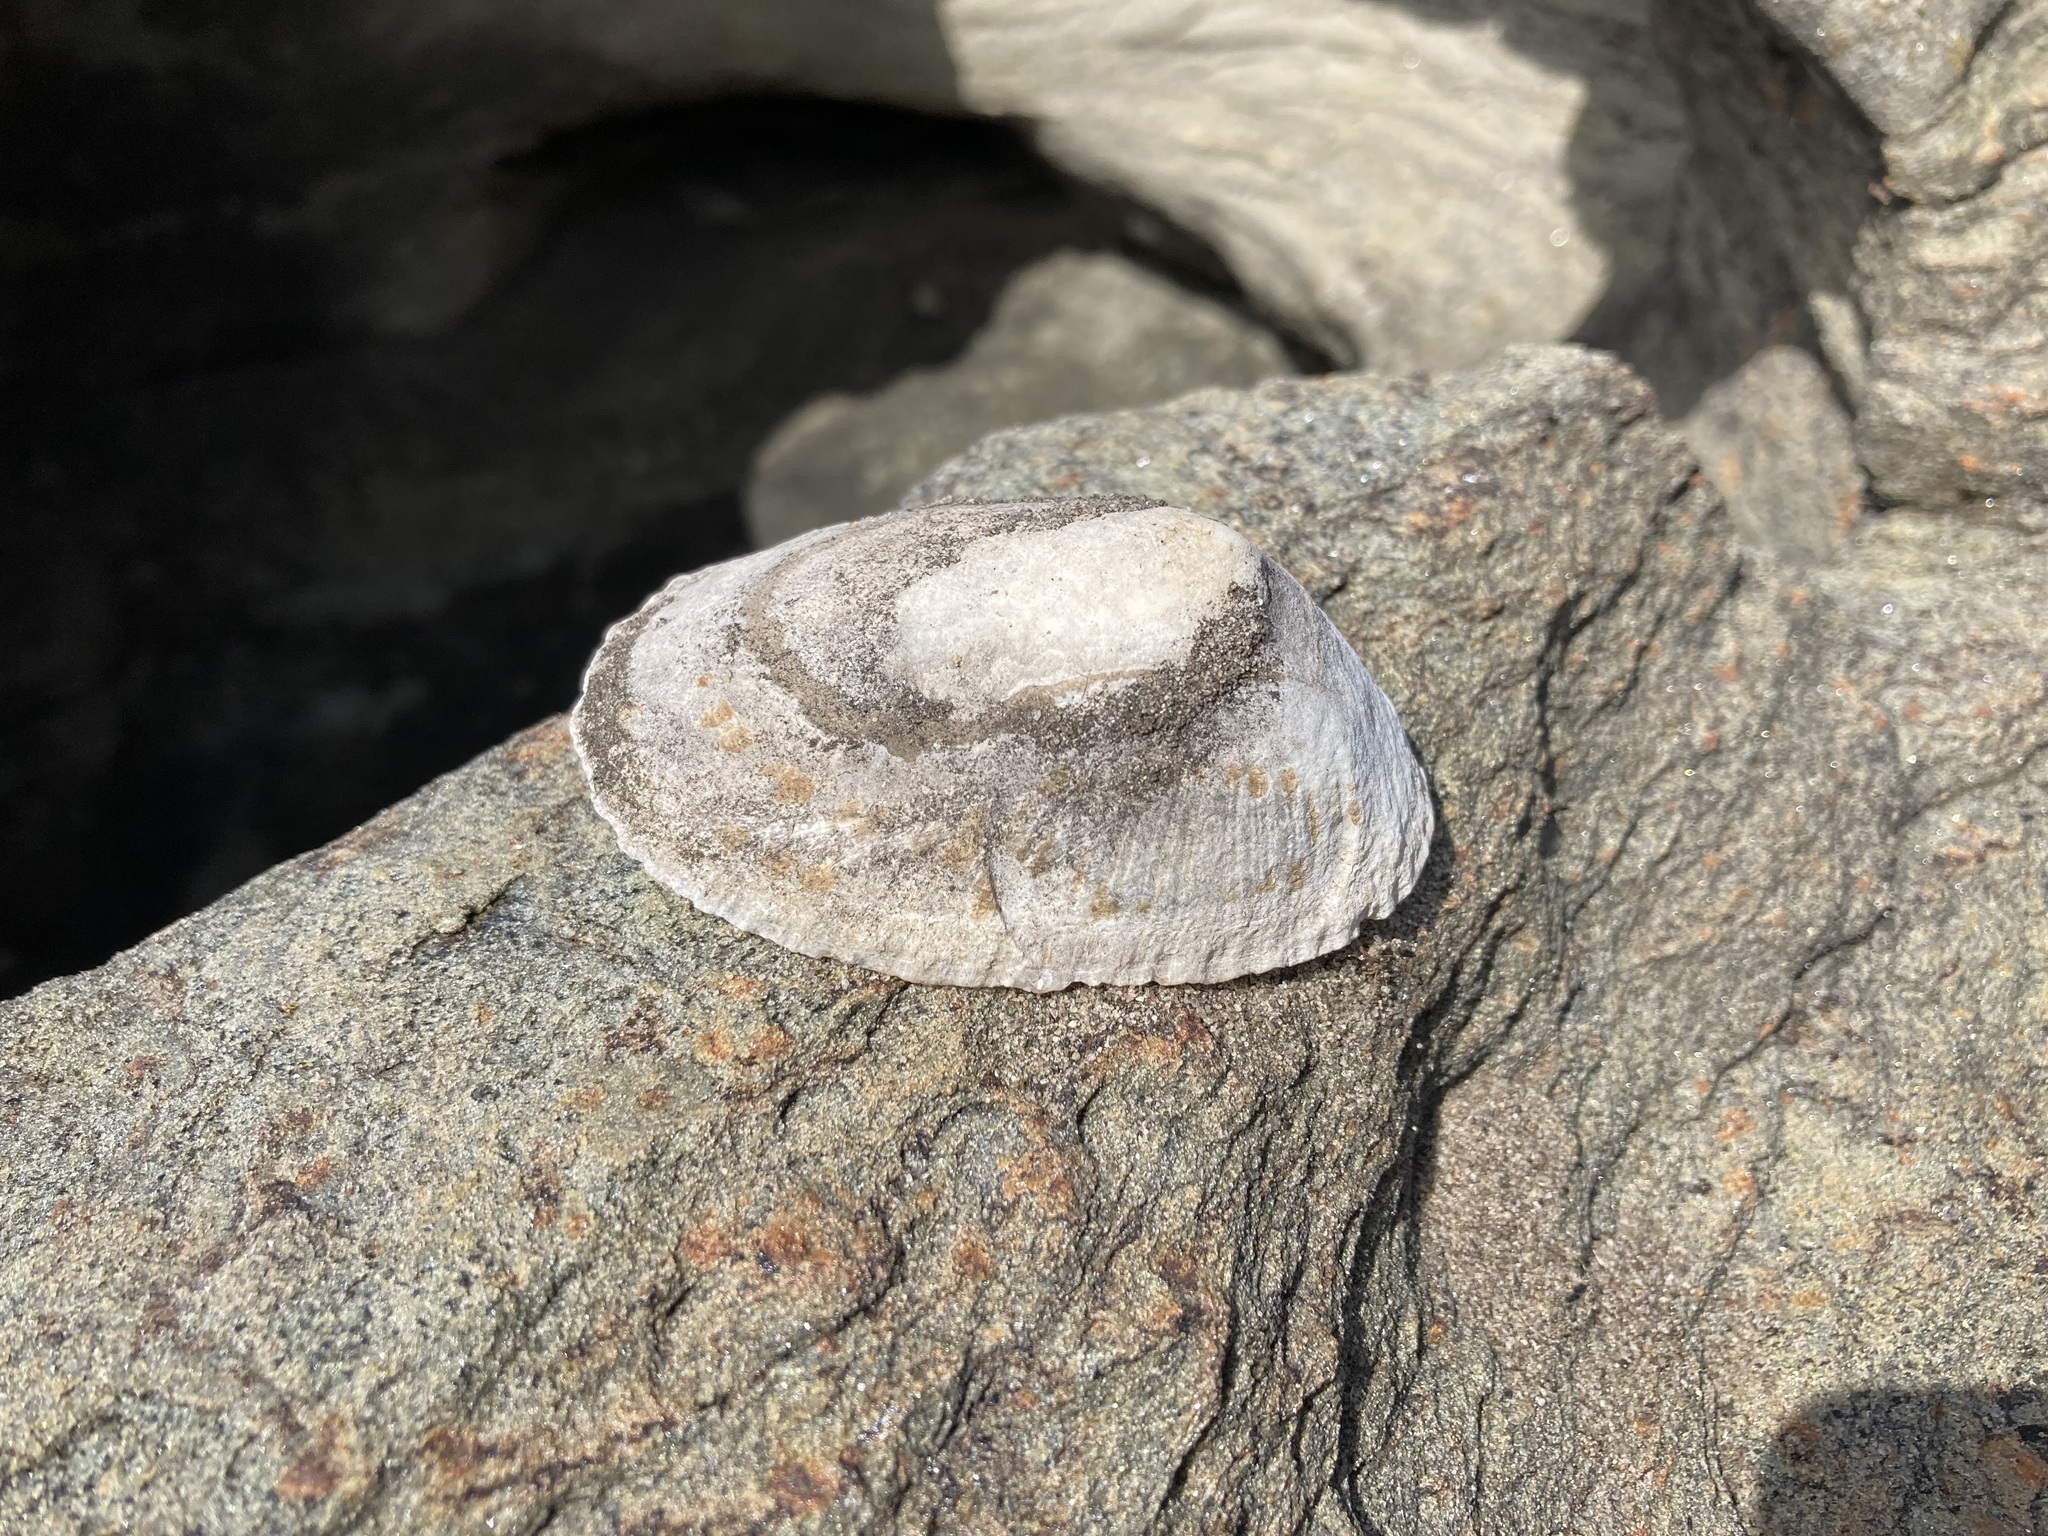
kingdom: Animalia
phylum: Mollusca
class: Gastropoda
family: Patellidae
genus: Scutellastra
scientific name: Scutellastra laticostata
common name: Giant limpet
